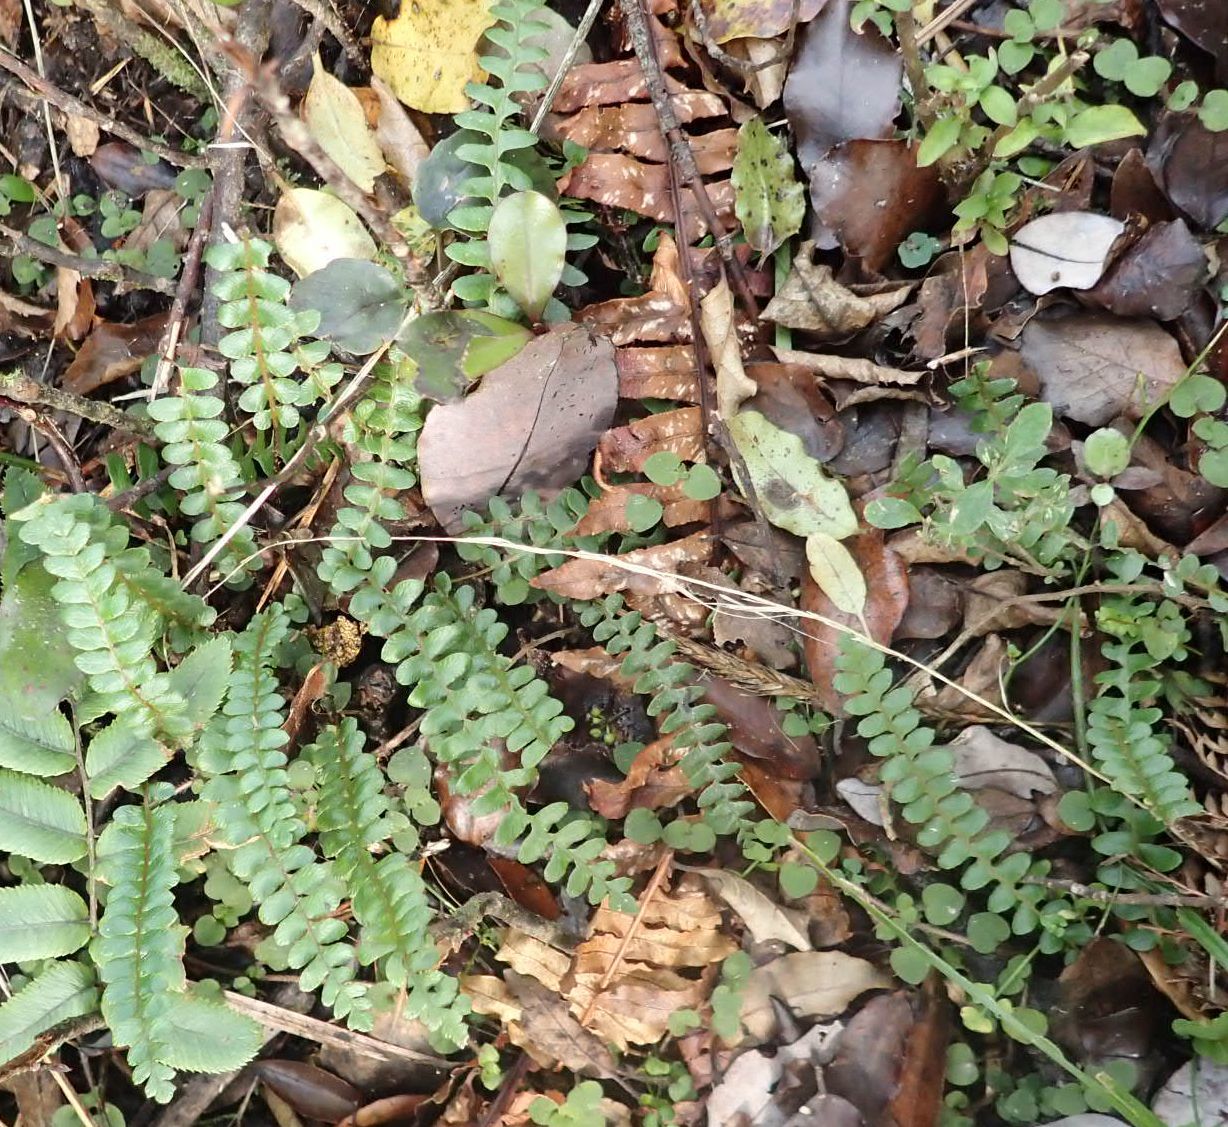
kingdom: Plantae
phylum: Tracheophyta
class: Polypodiopsida
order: Polypodiales
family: Blechnaceae
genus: Austroblechnum
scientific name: Austroblechnum penna-marina
